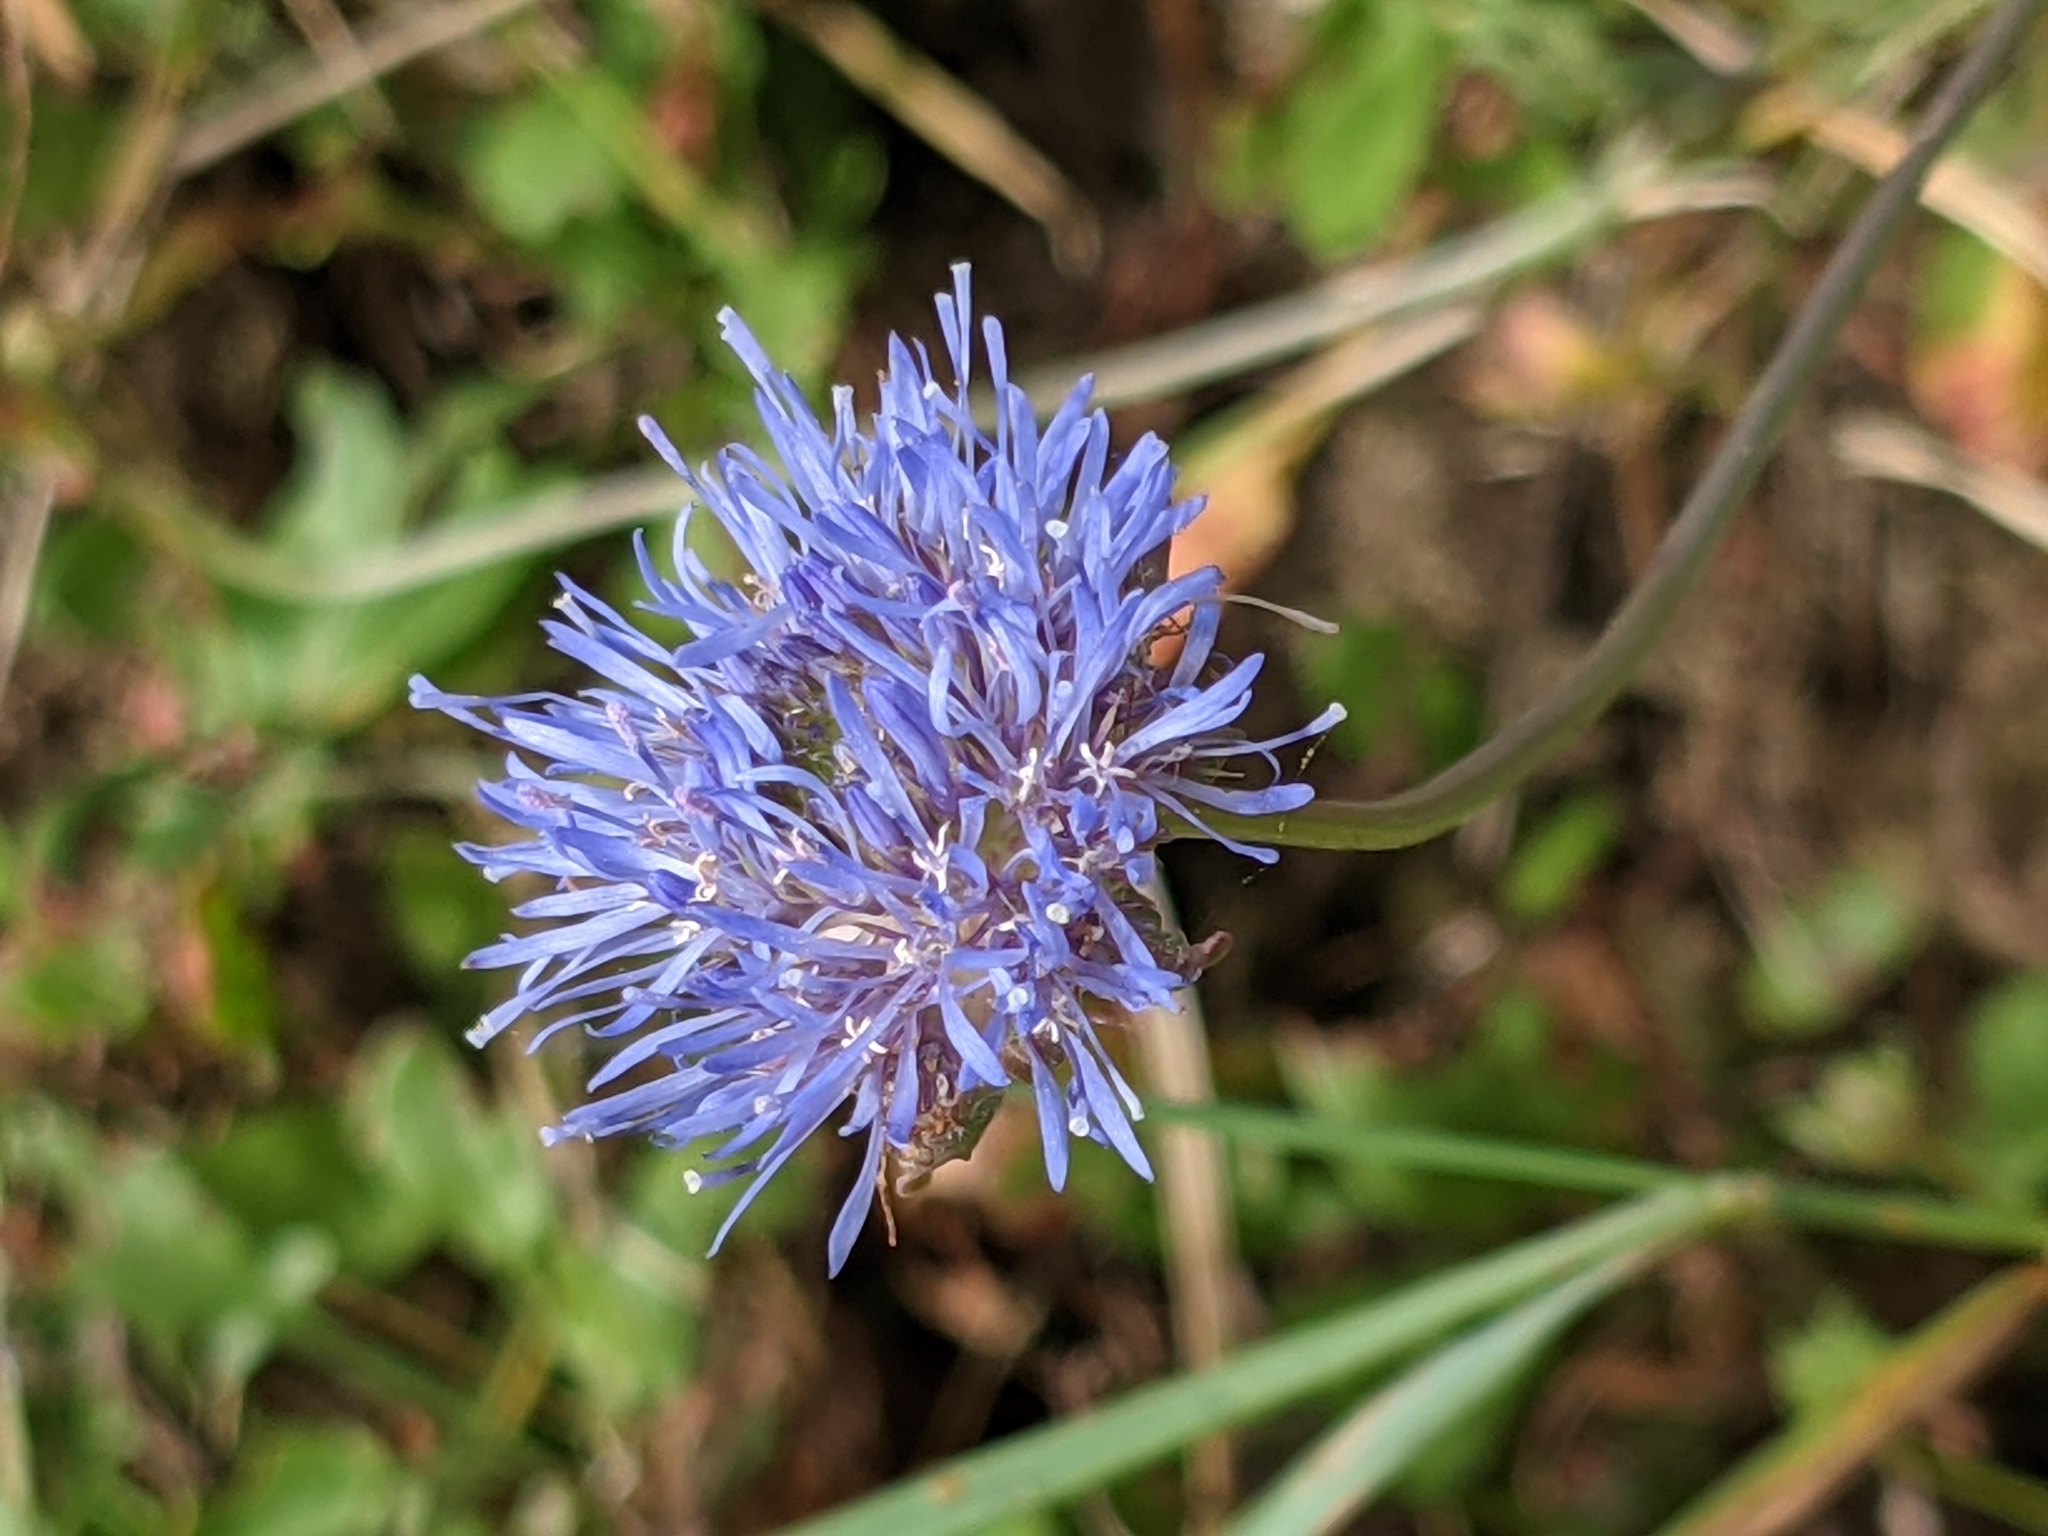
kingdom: Plantae
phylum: Tracheophyta
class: Magnoliopsida
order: Asterales
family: Campanulaceae
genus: Jasione
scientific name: Jasione montana
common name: Sheep's-bit
